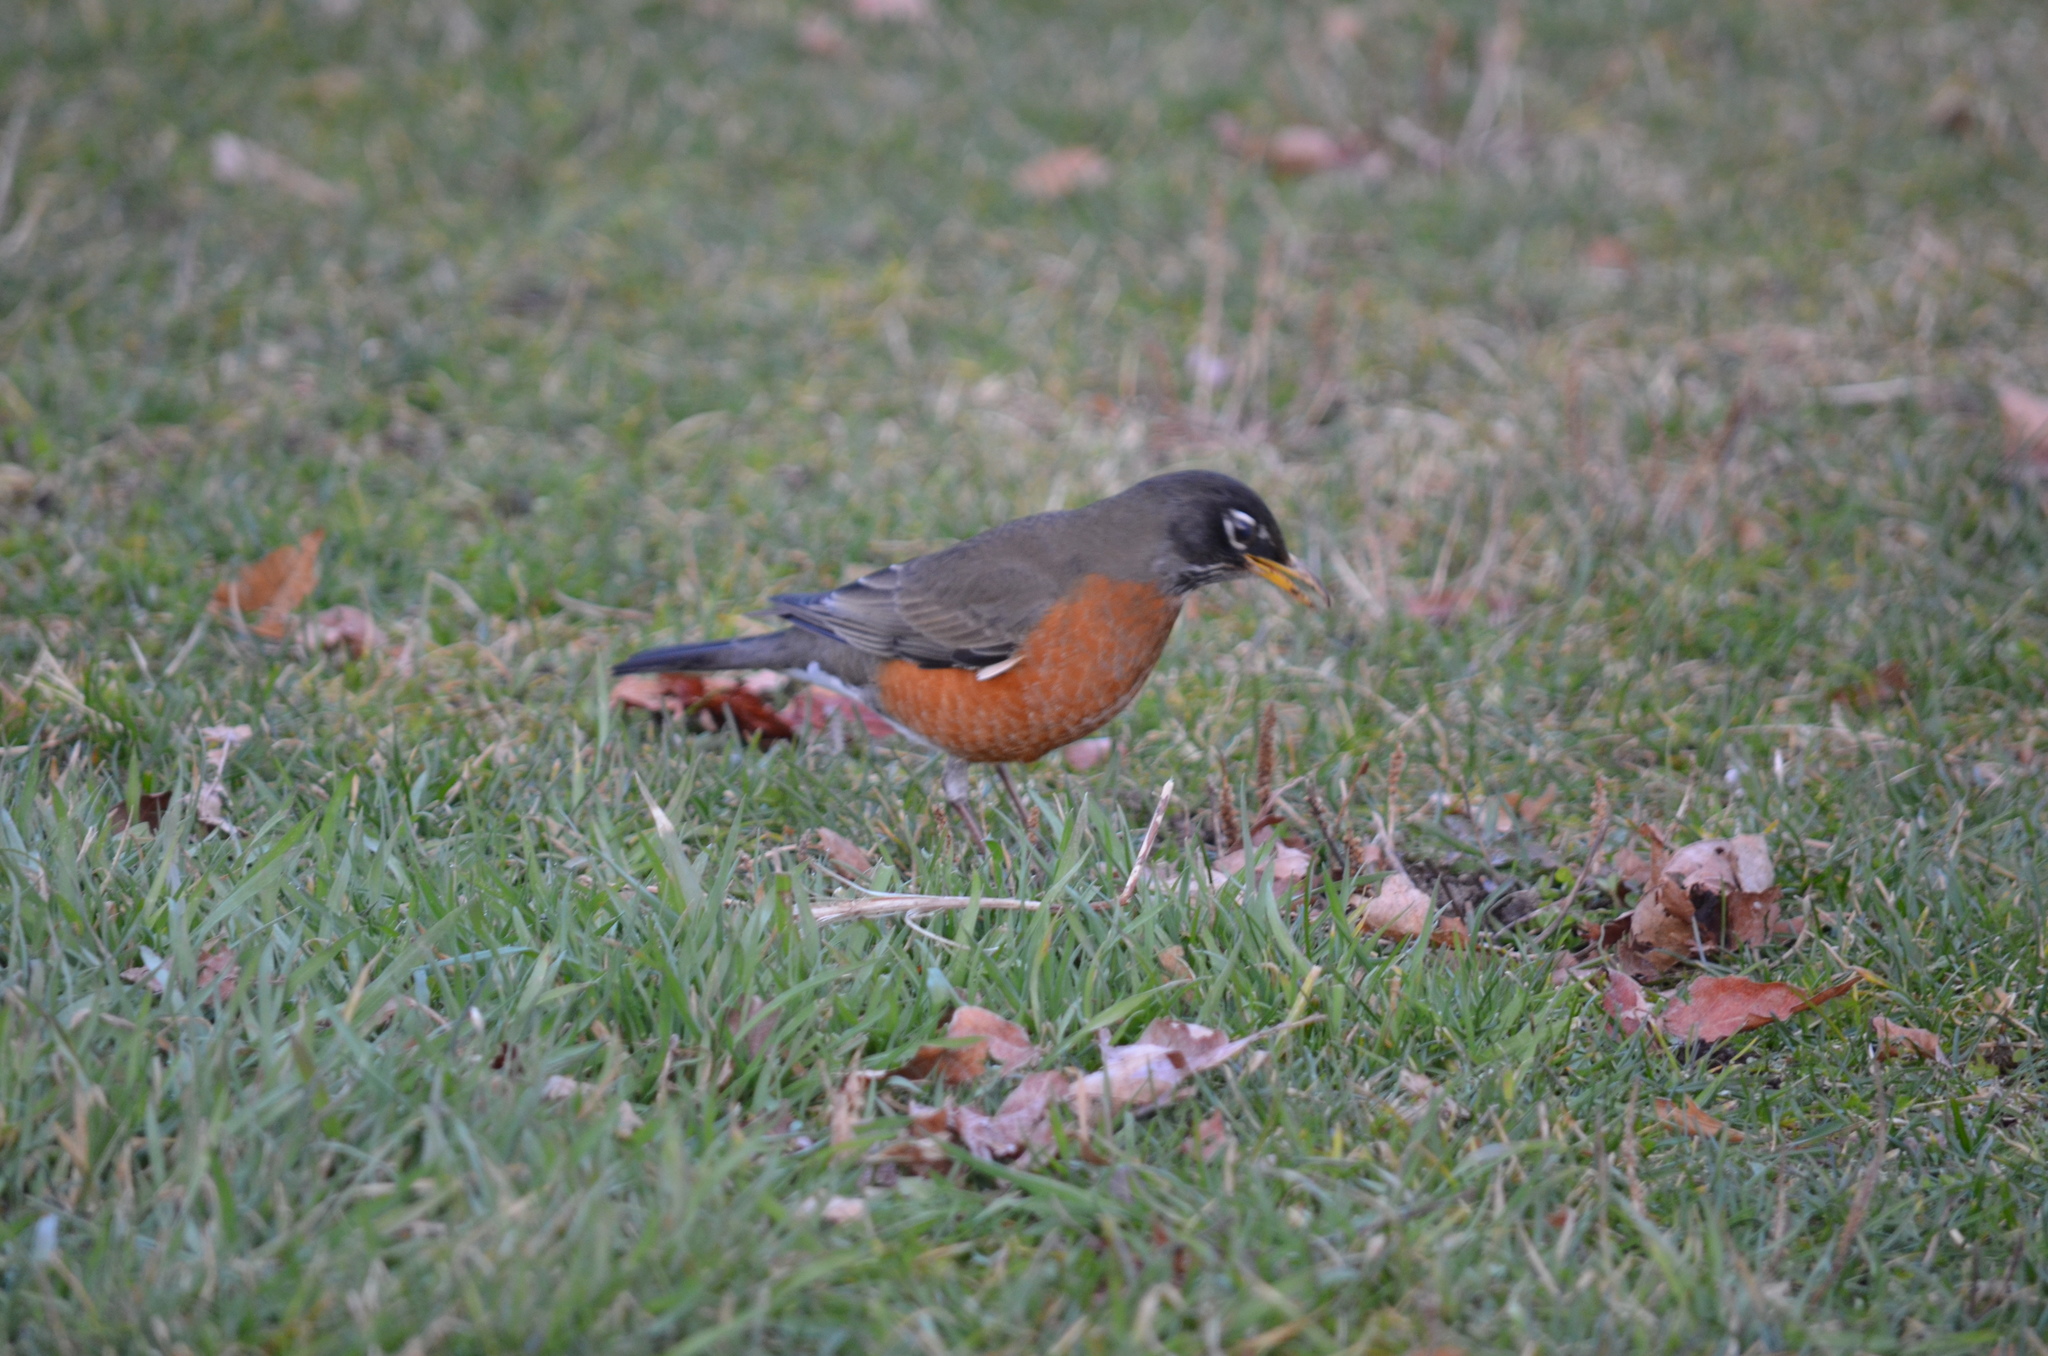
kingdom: Animalia
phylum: Chordata
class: Aves
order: Passeriformes
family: Turdidae
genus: Turdus
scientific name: Turdus migratorius
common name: American robin
